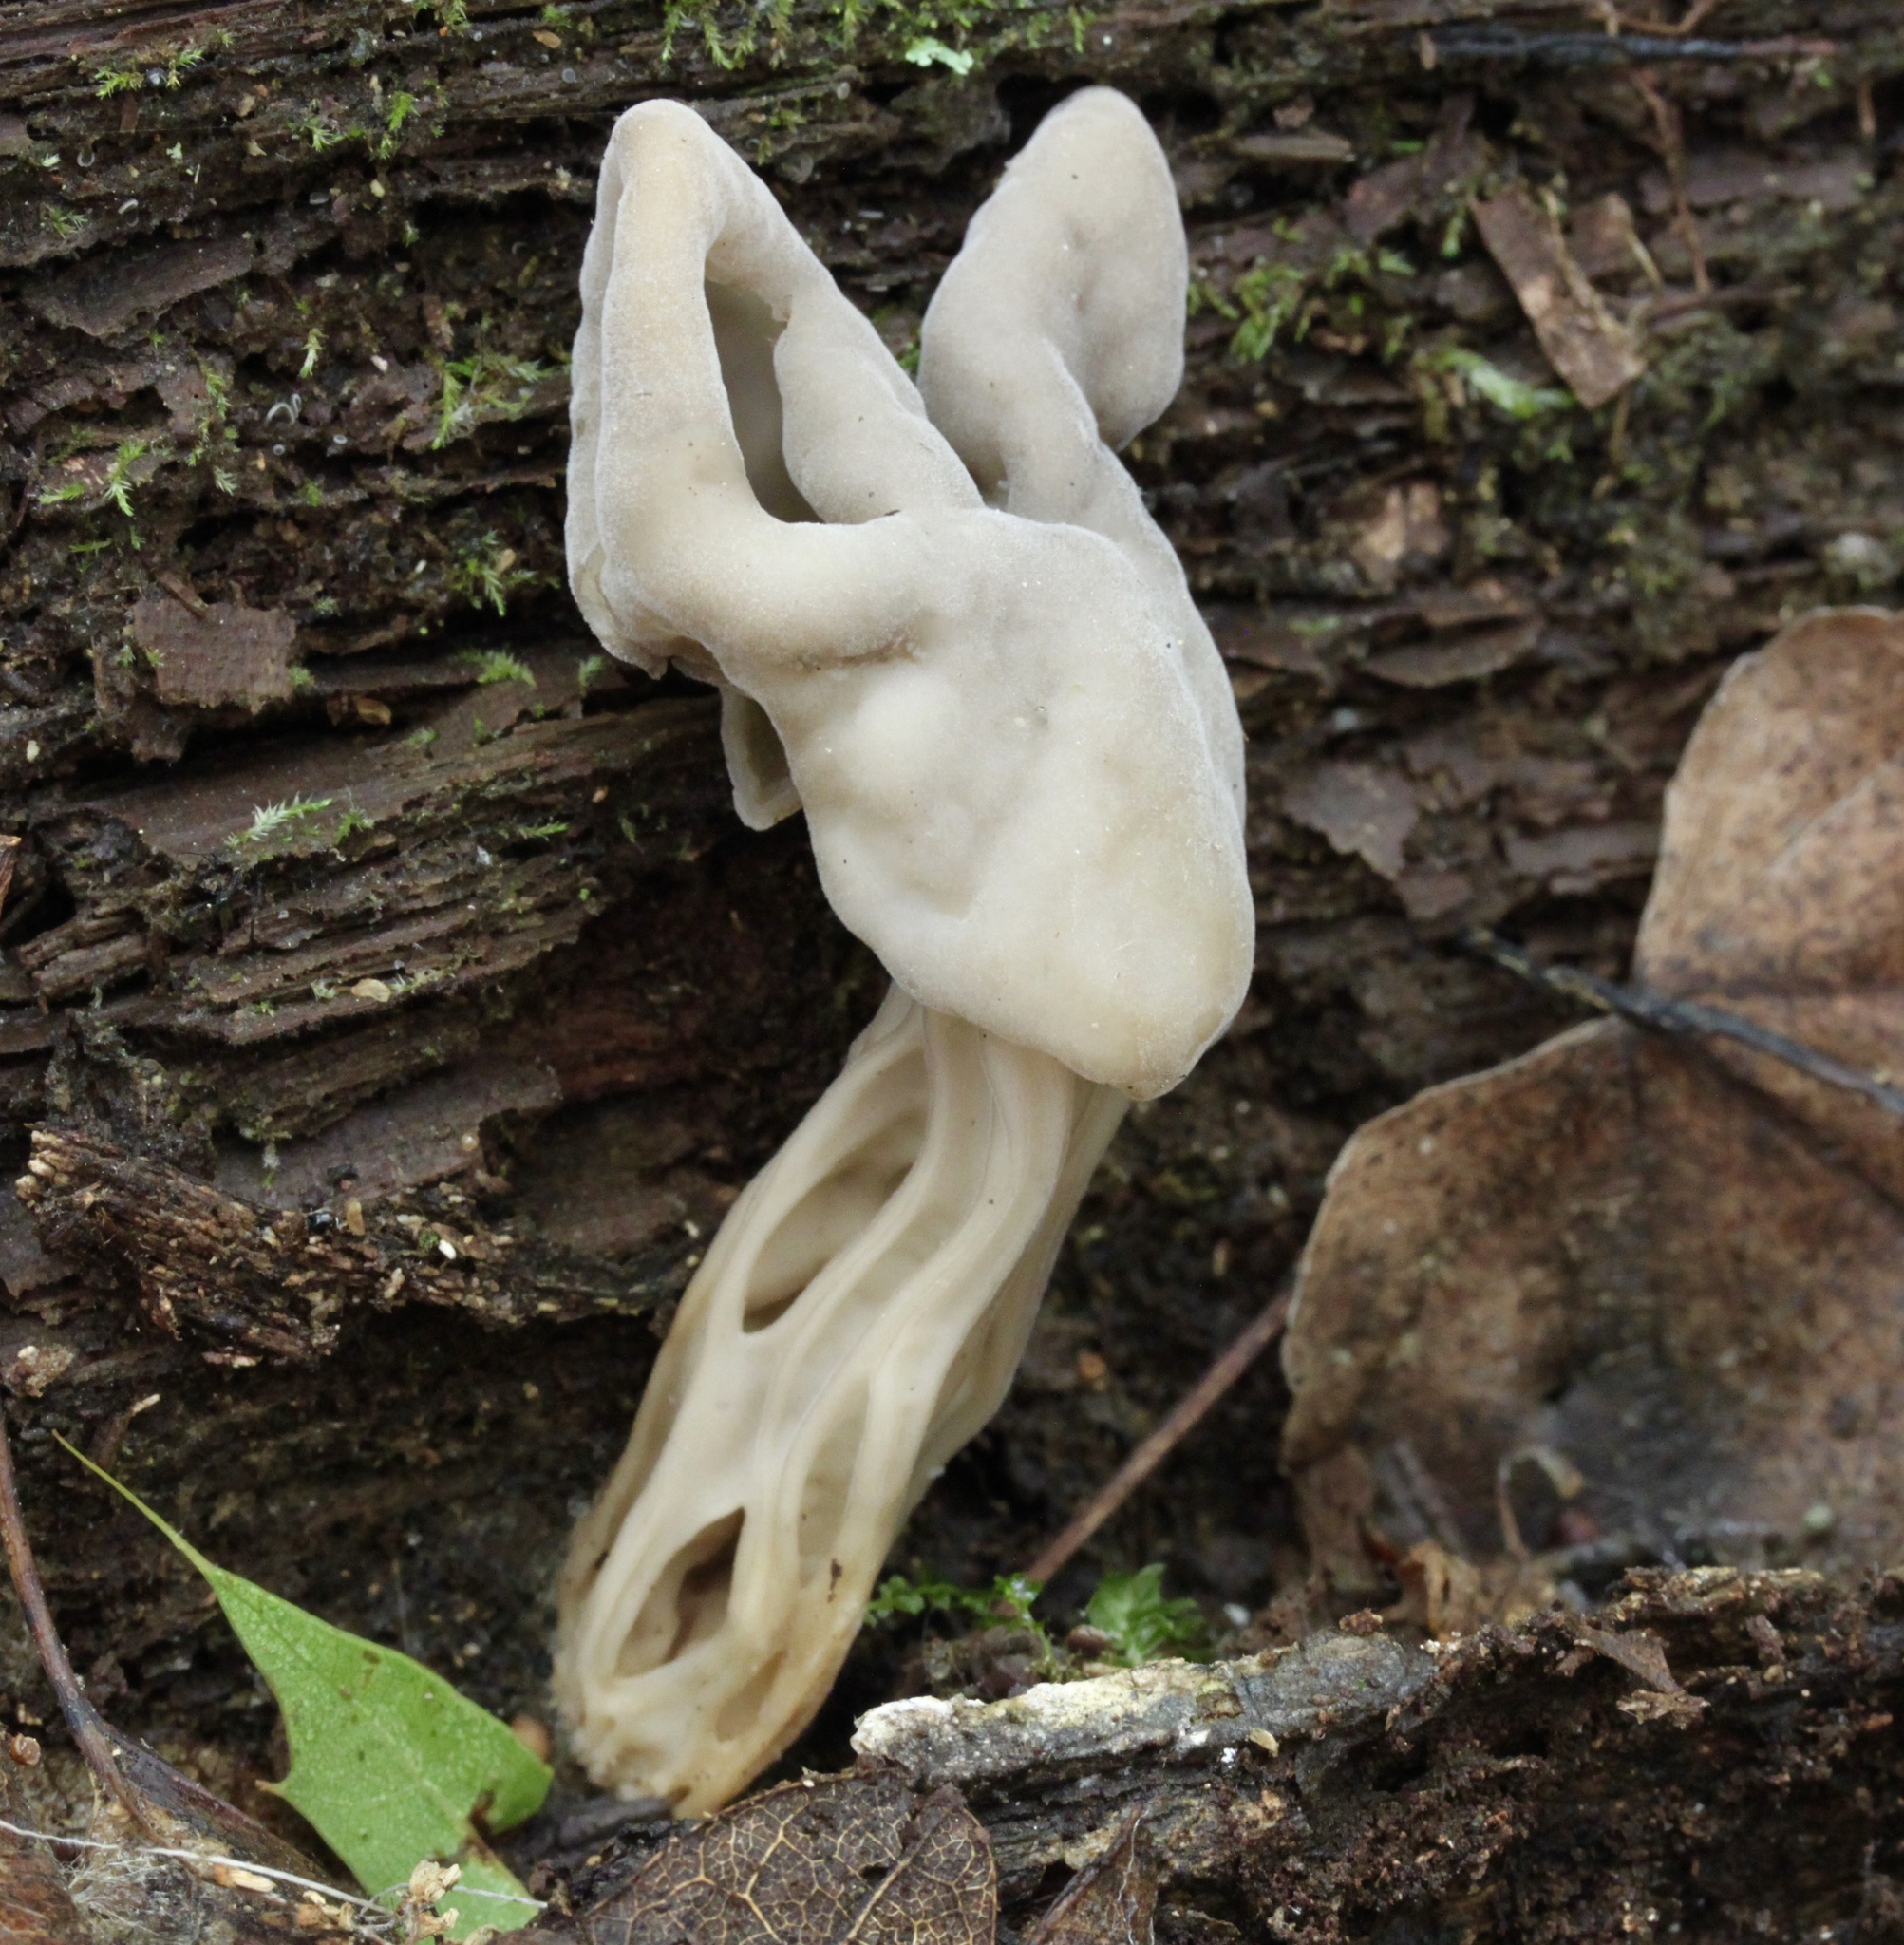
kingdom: Fungi
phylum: Ascomycota
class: Pezizomycetes
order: Pezizales
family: Helvellaceae
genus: Helvella
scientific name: Helvella lactea
